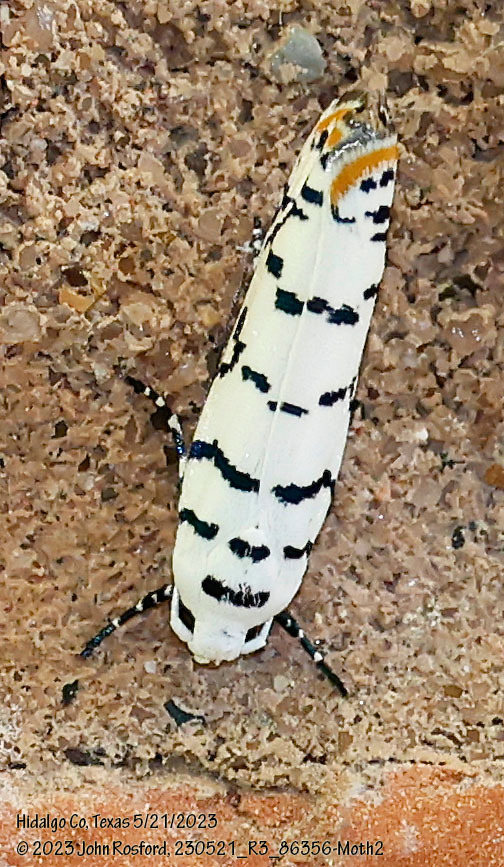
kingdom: Animalia
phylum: Arthropoda
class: Insecta
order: Lepidoptera
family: Ethmiidae
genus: Ethmia
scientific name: Ethmia delliella
